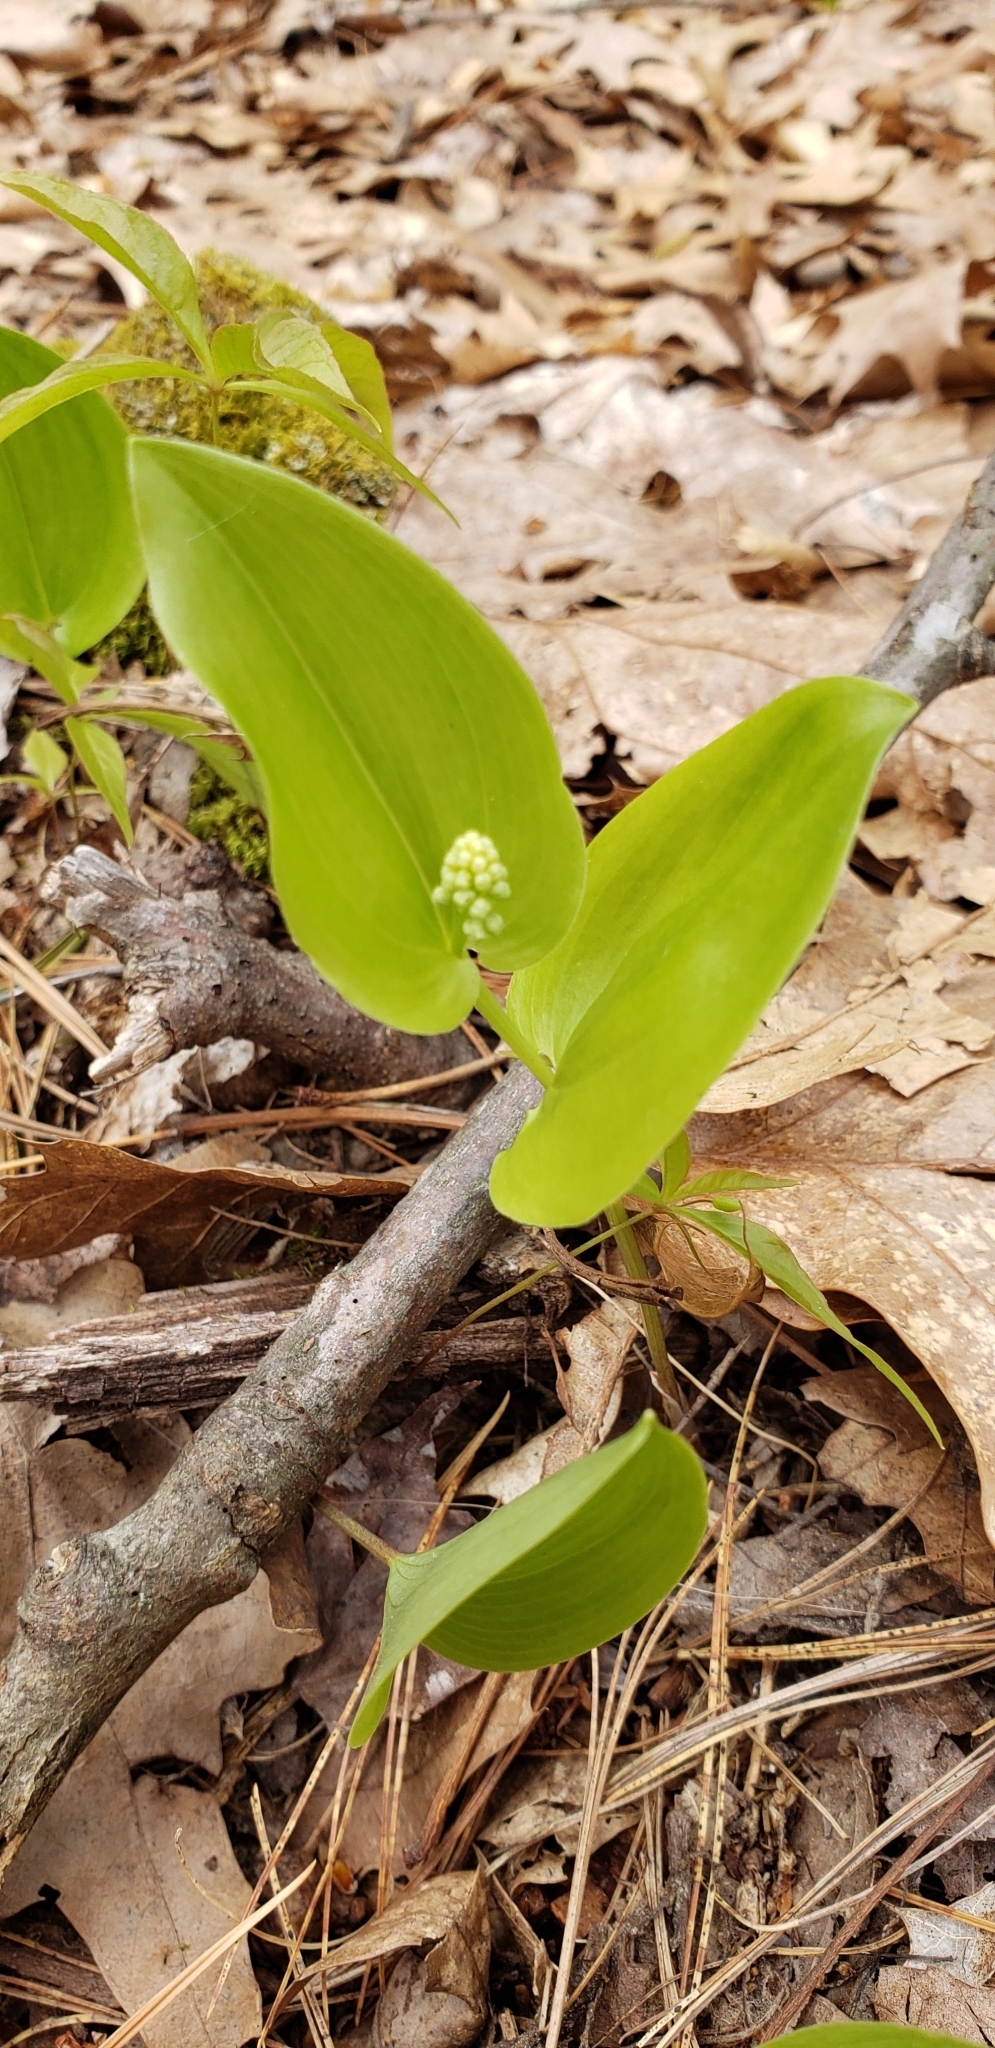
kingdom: Plantae
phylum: Tracheophyta
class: Liliopsida
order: Asparagales
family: Asparagaceae
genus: Maianthemum
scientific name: Maianthemum canadense
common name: False lily-of-the-valley
